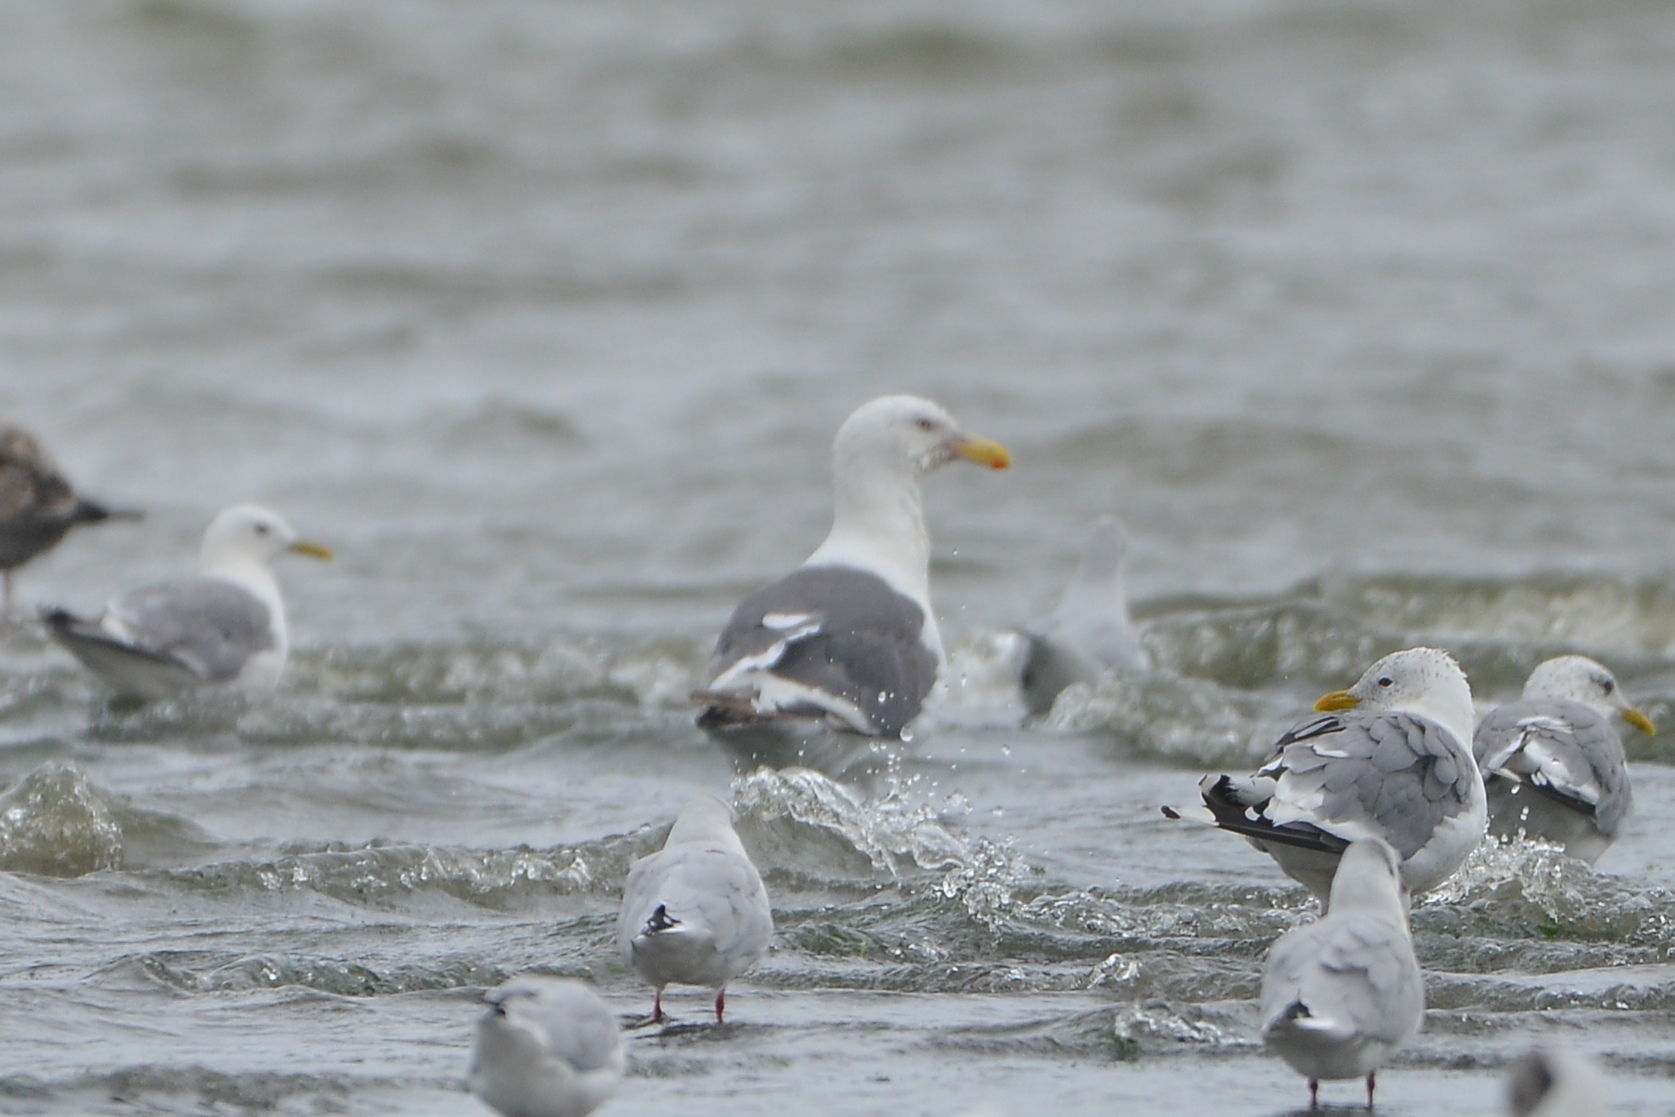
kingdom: Animalia
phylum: Chordata
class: Aves
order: Charadriiformes
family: Laridae
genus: Larus
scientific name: Larus schistisagus
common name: Slaty-backed gull
